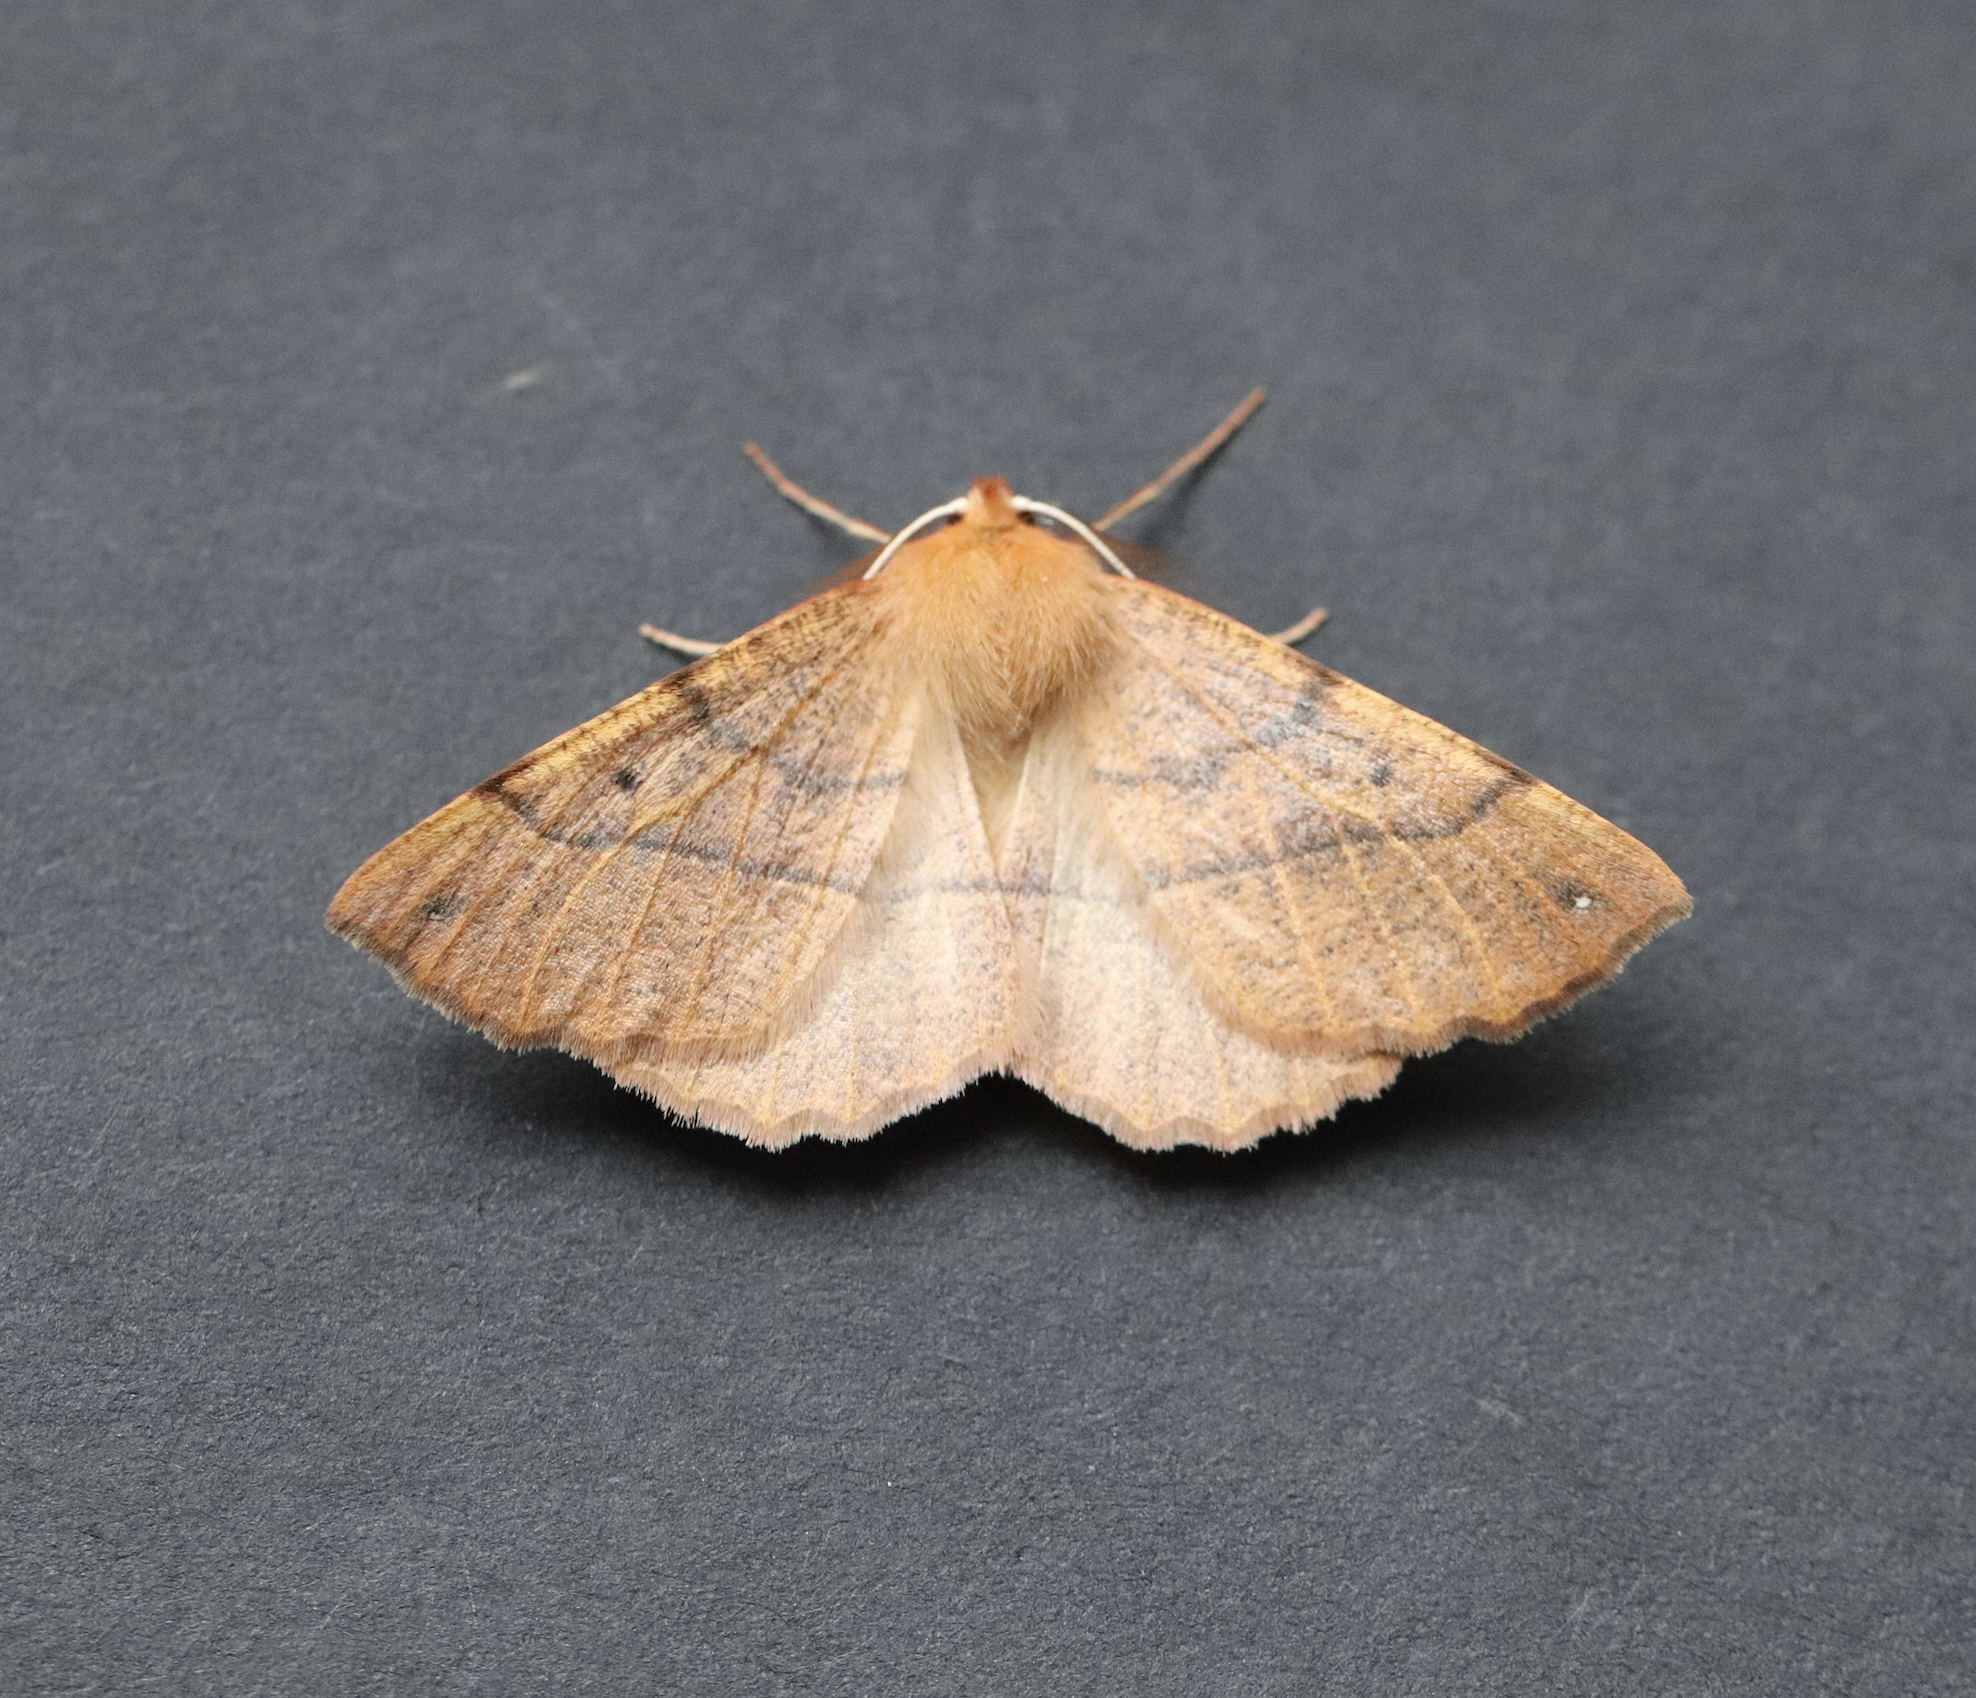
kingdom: Animalia
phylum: Arthropoda
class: Insecta
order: Lepidoptera
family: Geometridae
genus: Colotois
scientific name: Colotois pennaria
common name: Feathered thorn
